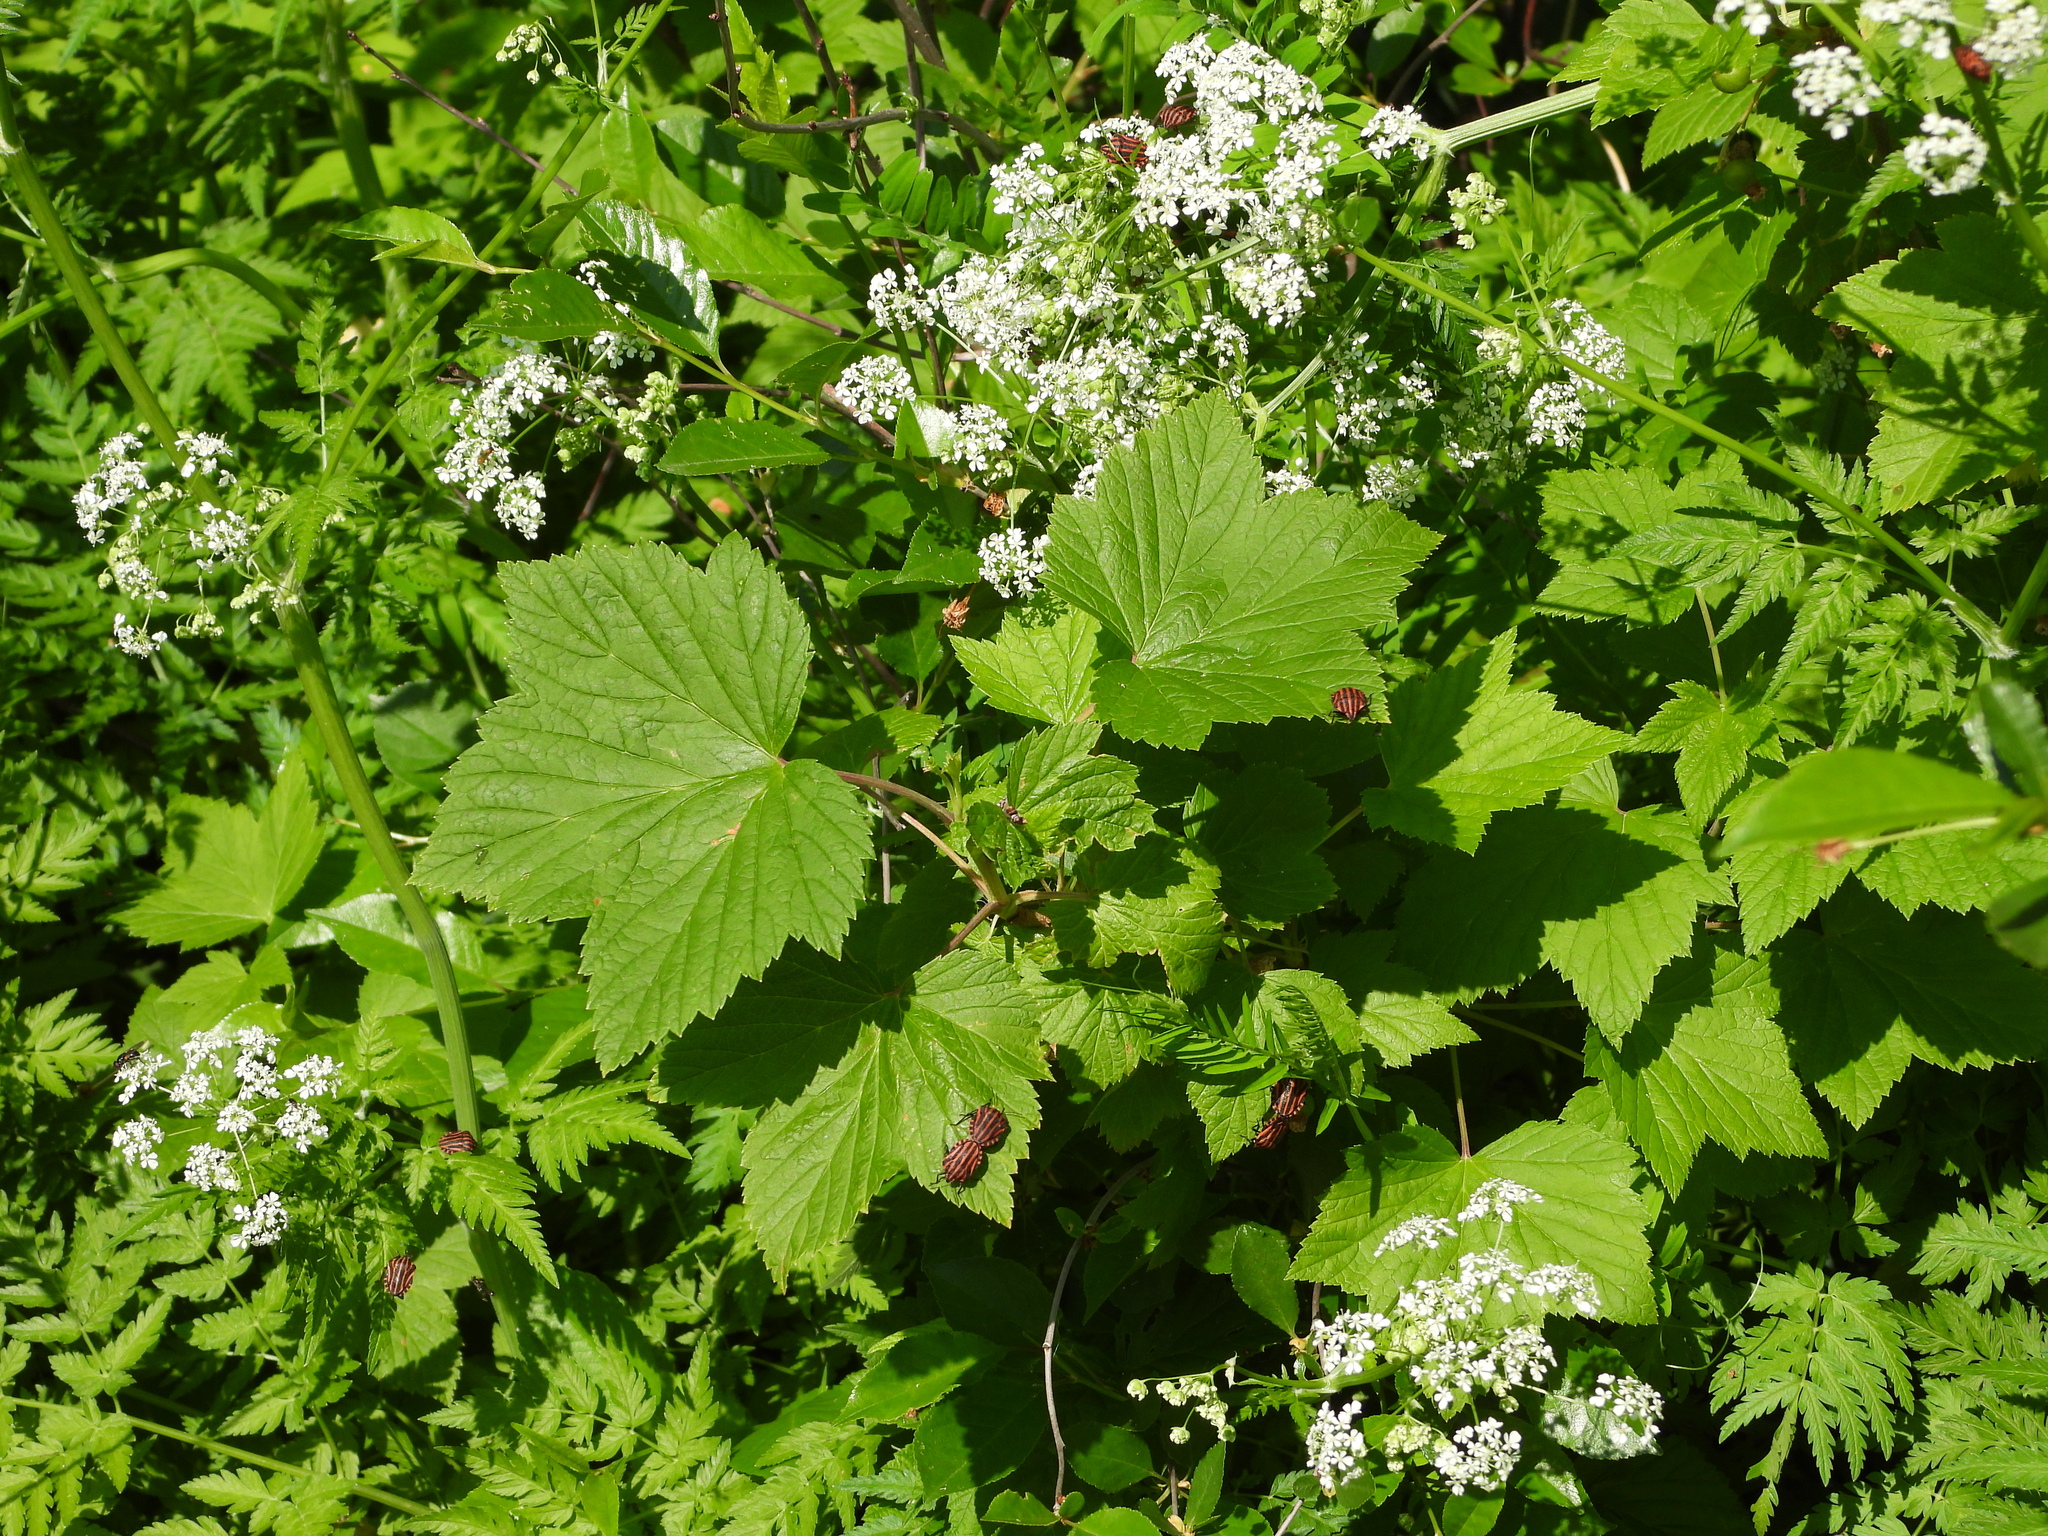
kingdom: Animalia
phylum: Arthropoda
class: Insecta
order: Hemiptera
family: Pentatomidae
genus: Graphosoma
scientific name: Graphosoma italicum
